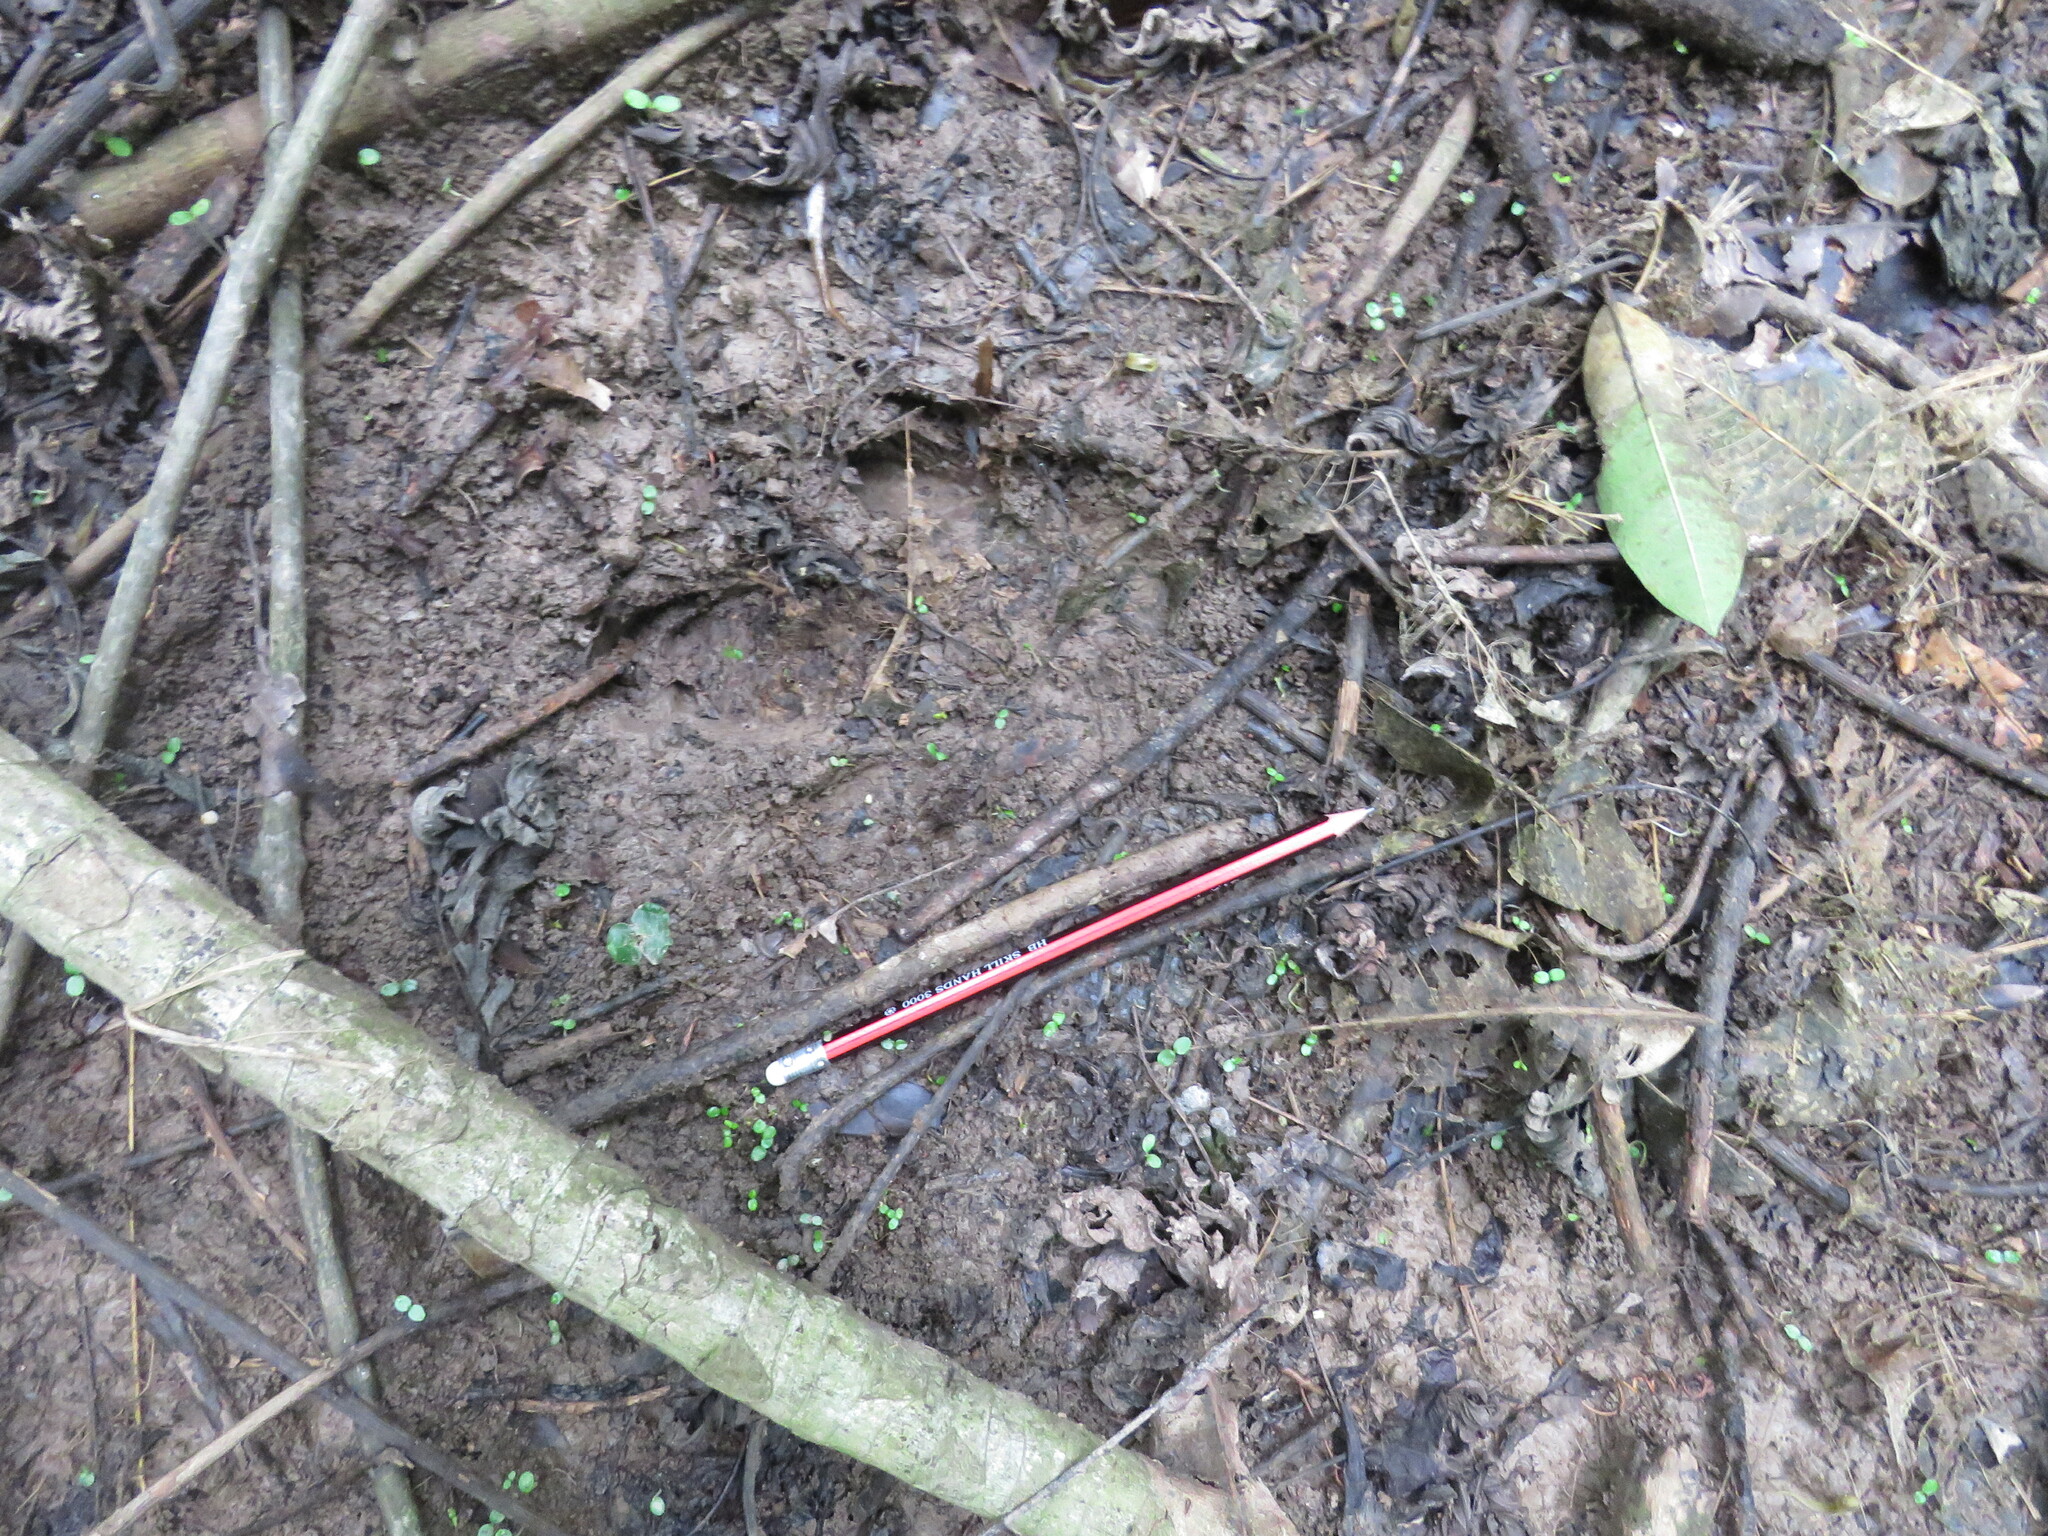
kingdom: Animalia
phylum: Chordata
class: Mammalia
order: Perissodactyla
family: Tapiridae
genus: Tapirus
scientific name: Tapirus terrestris
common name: Brazilian tapir
